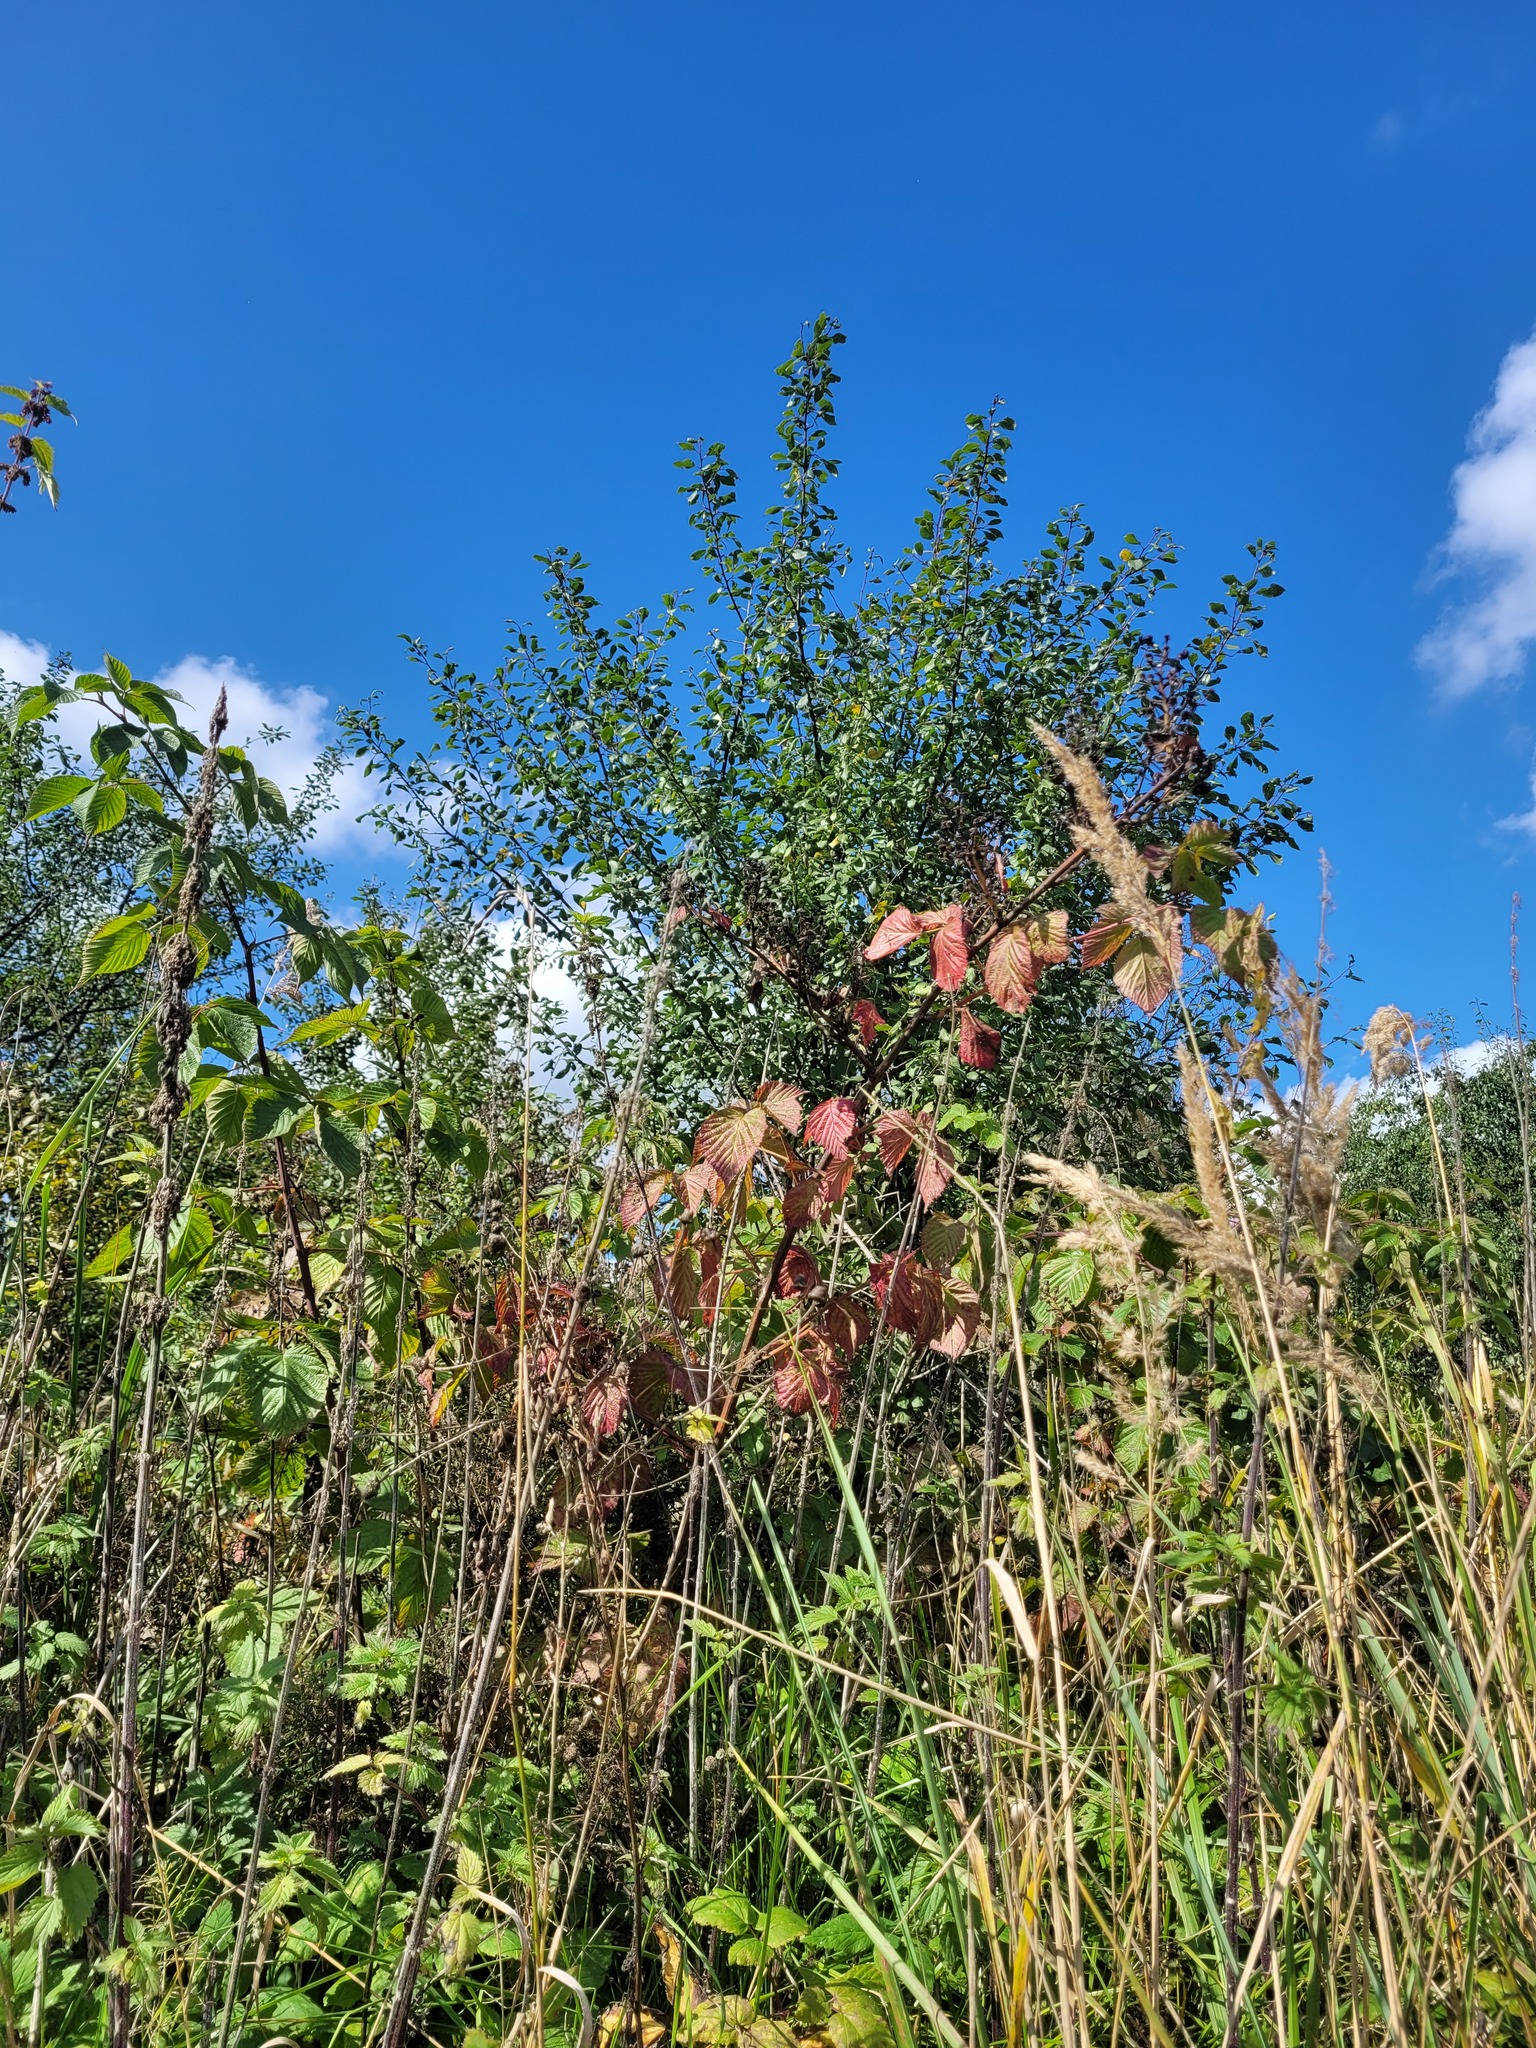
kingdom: Plantae
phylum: Tracheophyta
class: Magnoliopsida
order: Rosales
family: Rosaceae
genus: Rubus
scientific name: Rubus allegheniensis
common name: Allegheny blackberry
